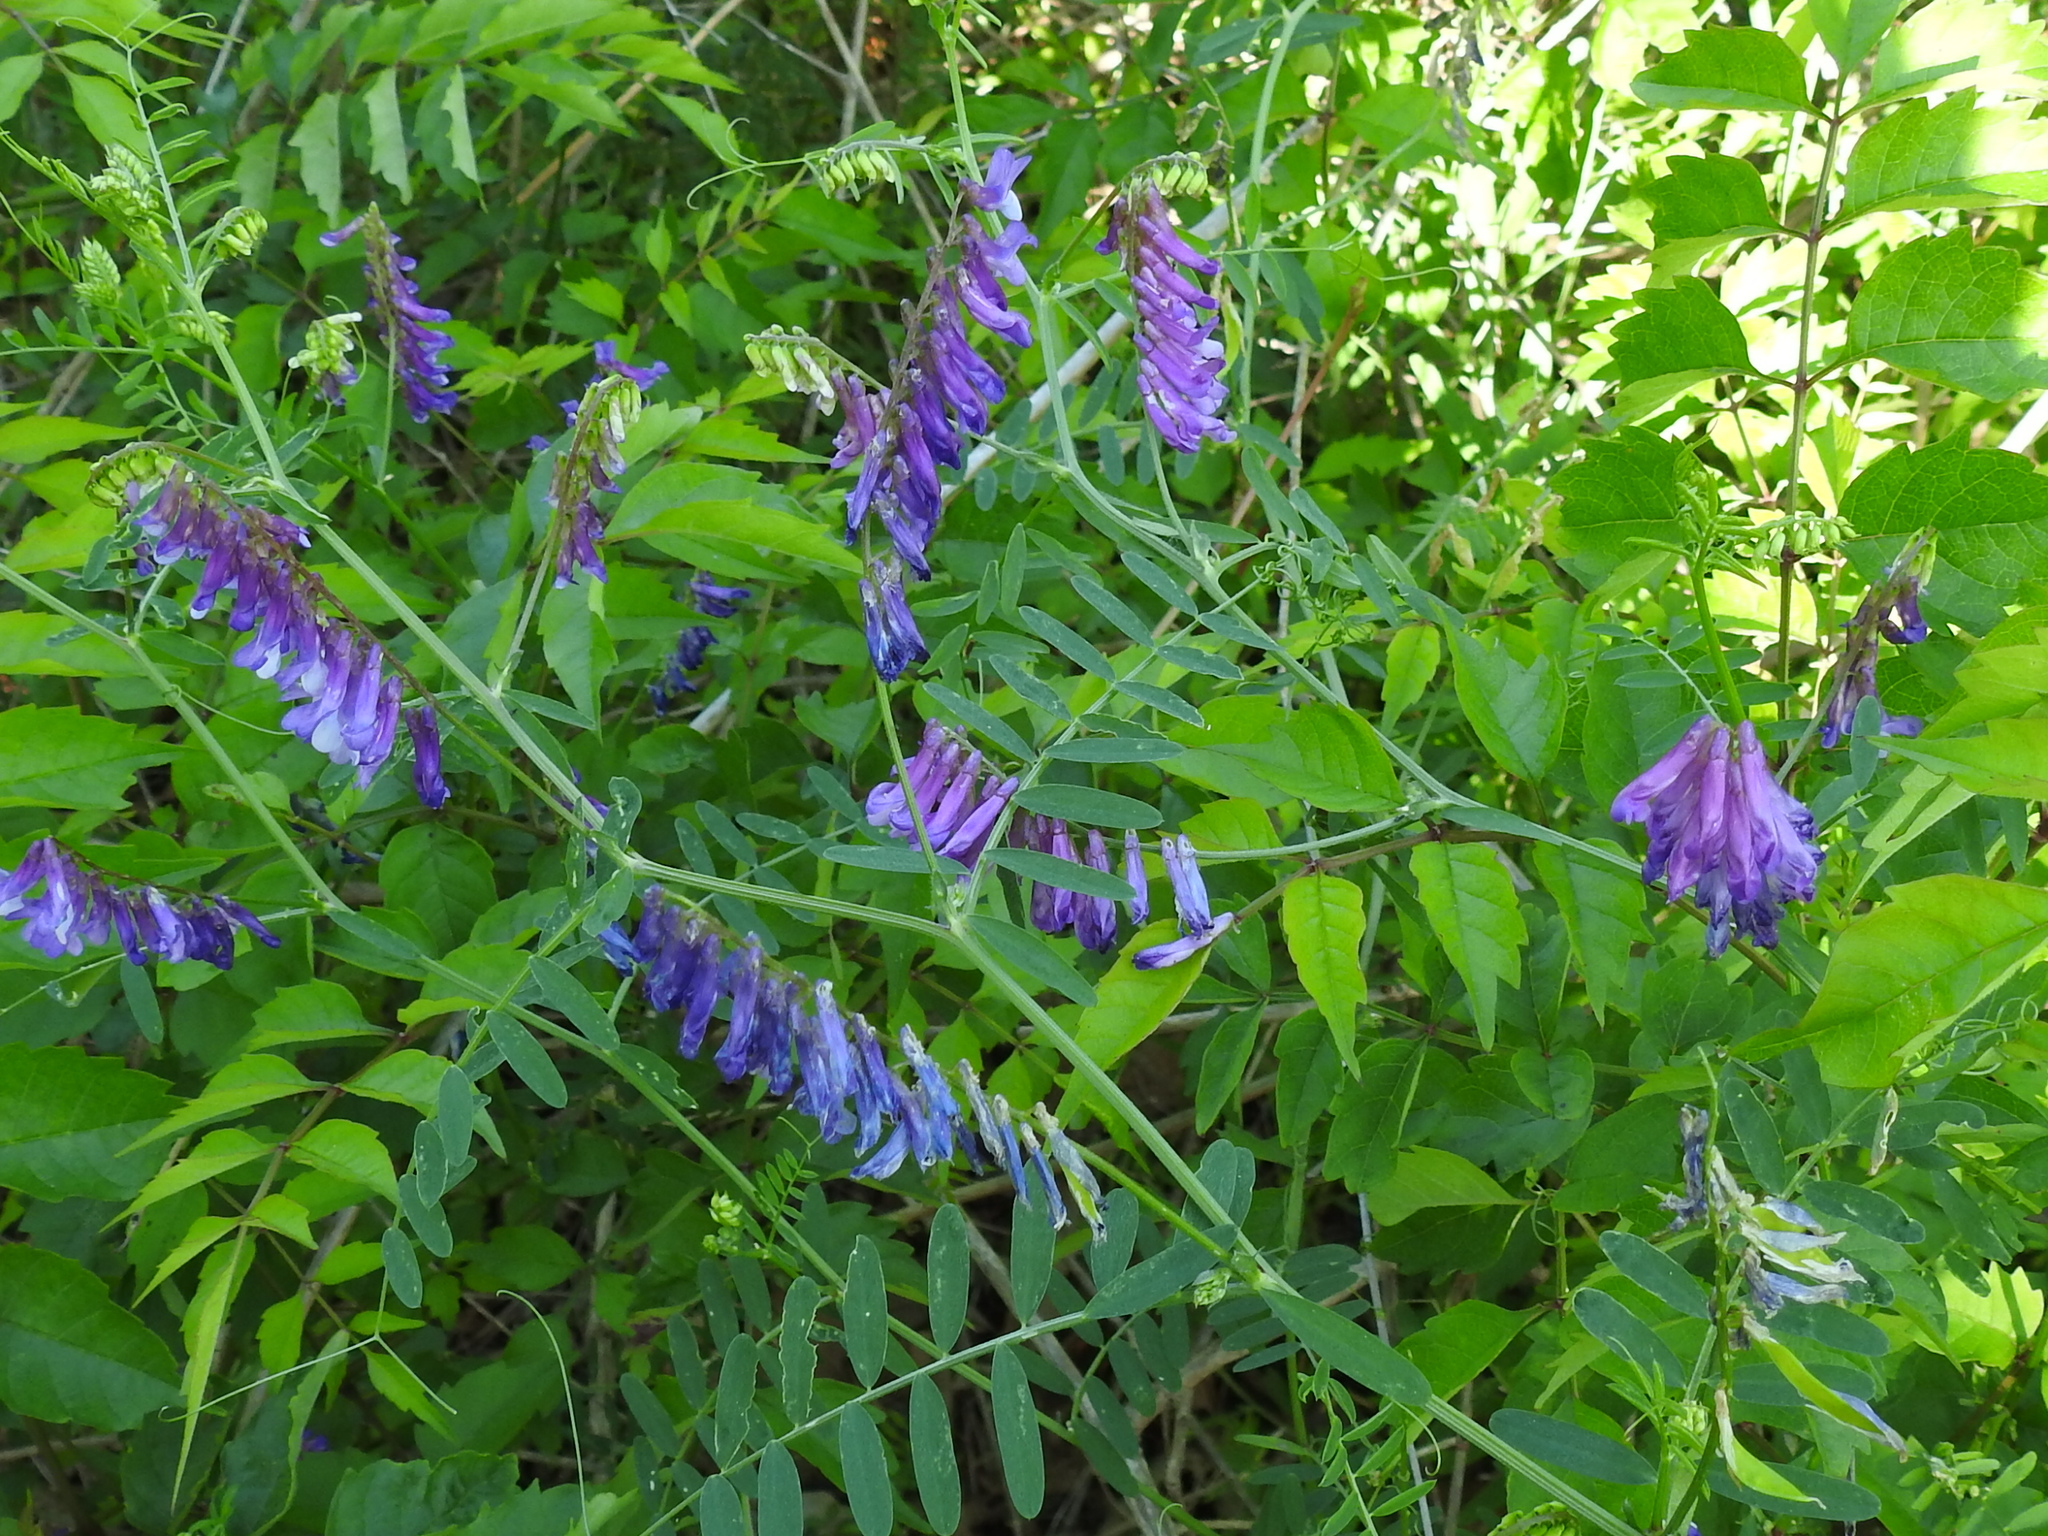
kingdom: Plantae
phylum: Tracheophyta
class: Magnoliopsida
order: Fabales
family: Fabaceae
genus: Vicia
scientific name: Vicia villosa
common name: Fodder vetch
